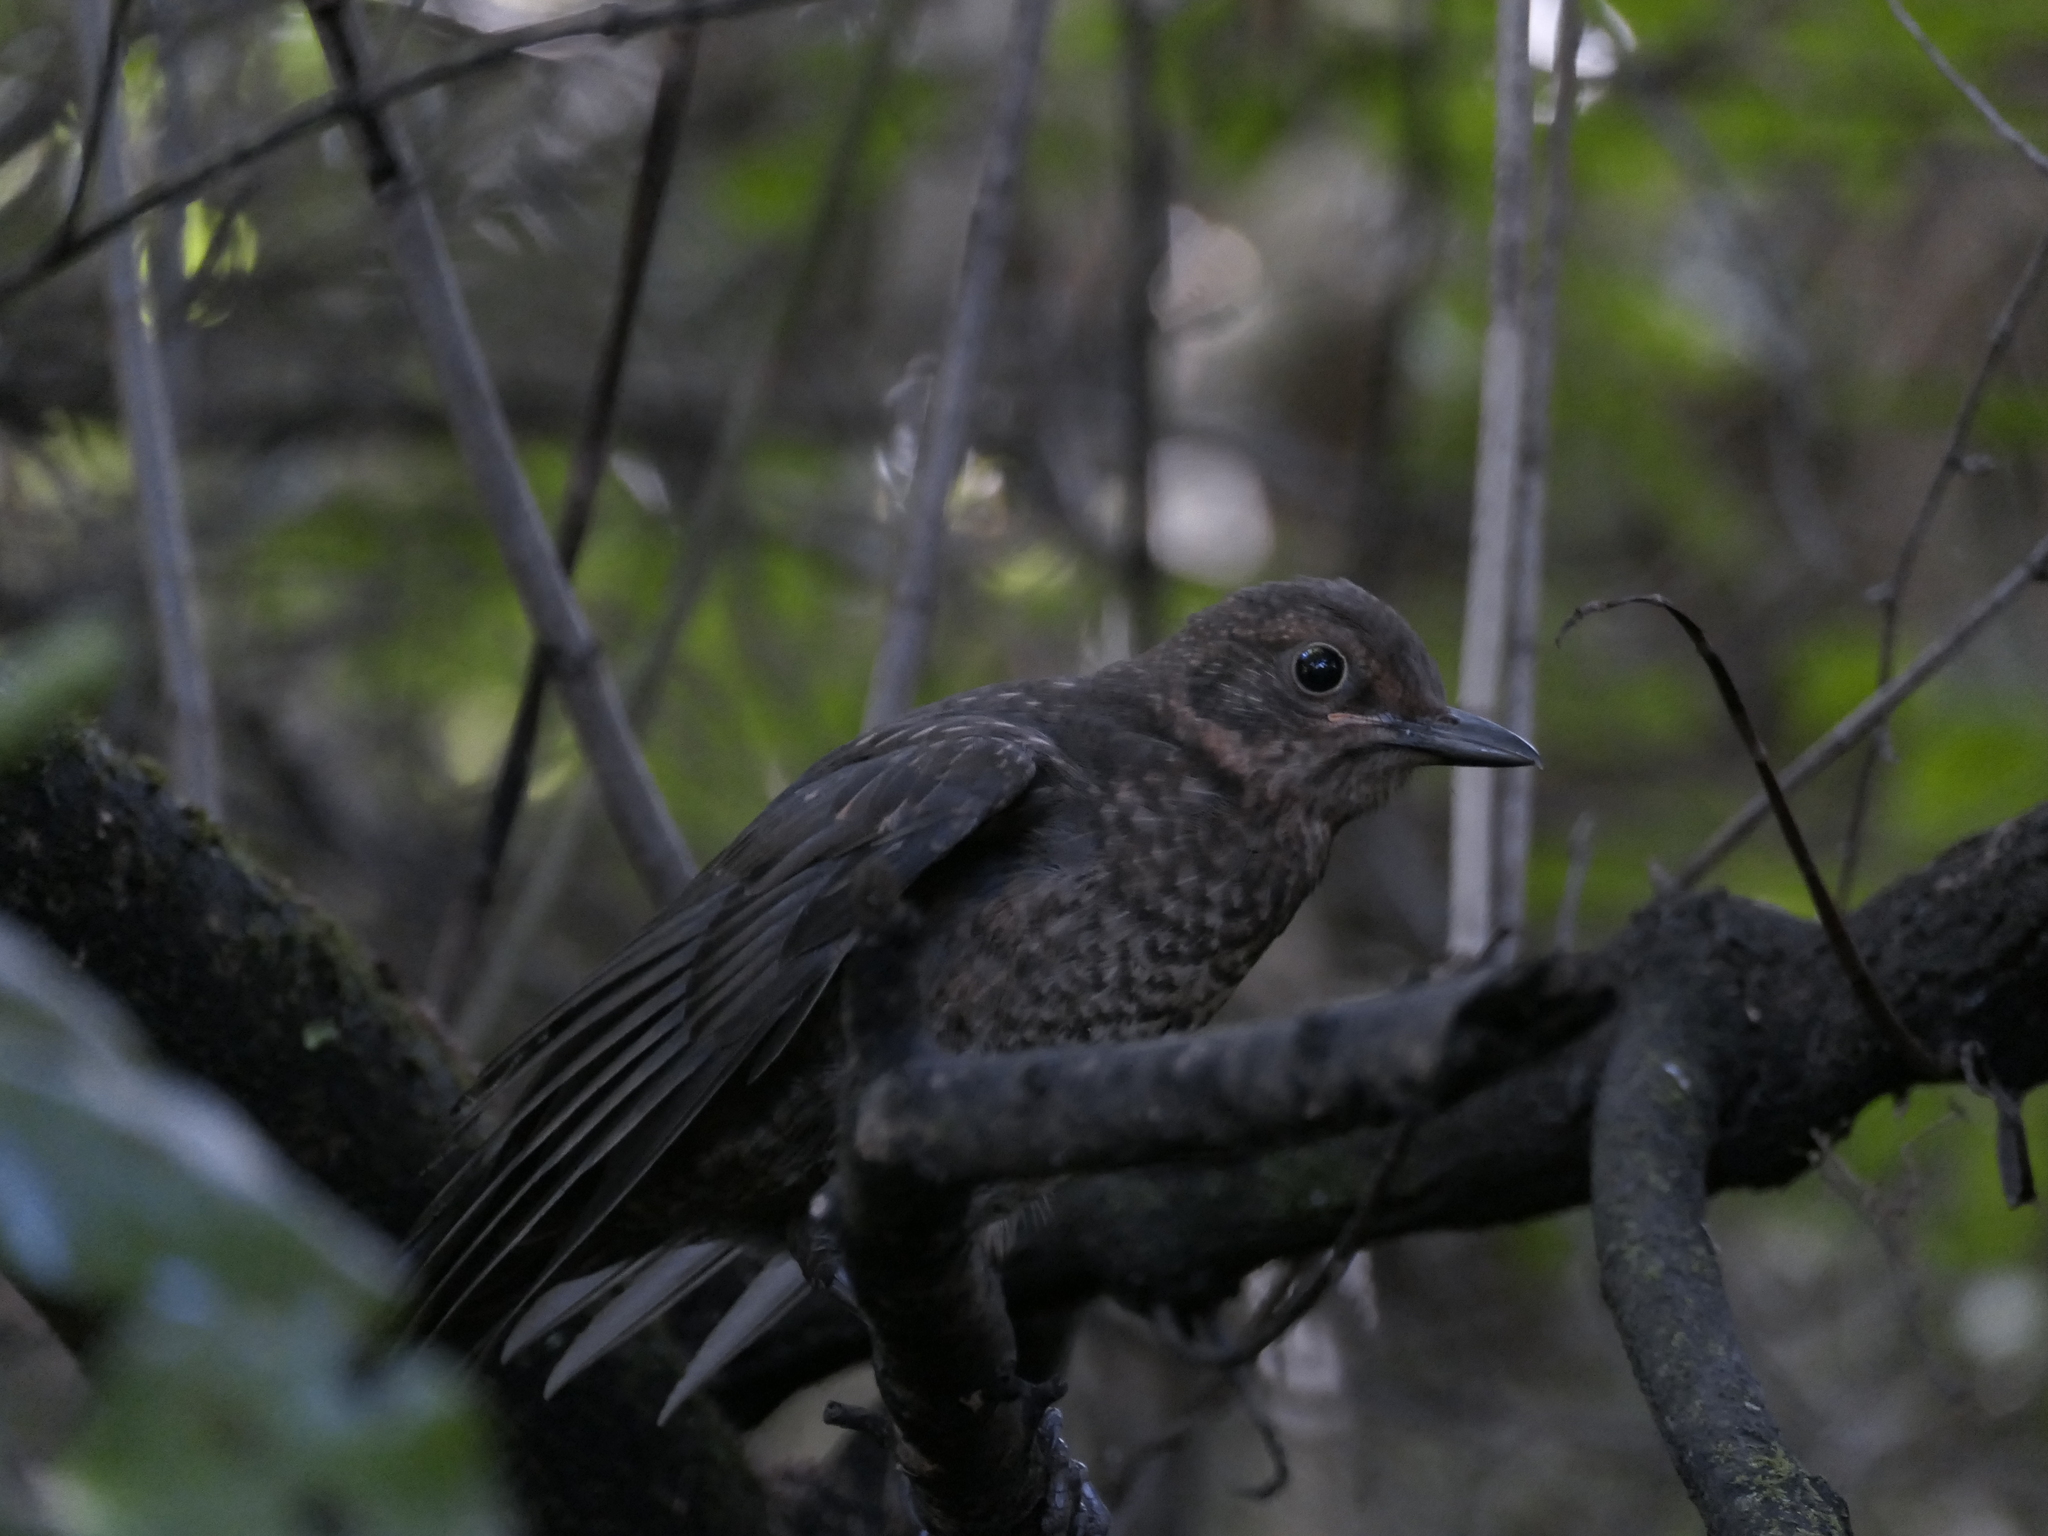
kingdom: Animalia
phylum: Chordata
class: Aves
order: Passeriformes
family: Turdidae
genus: Turdus
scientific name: Turdus merula
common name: Common blackbird
